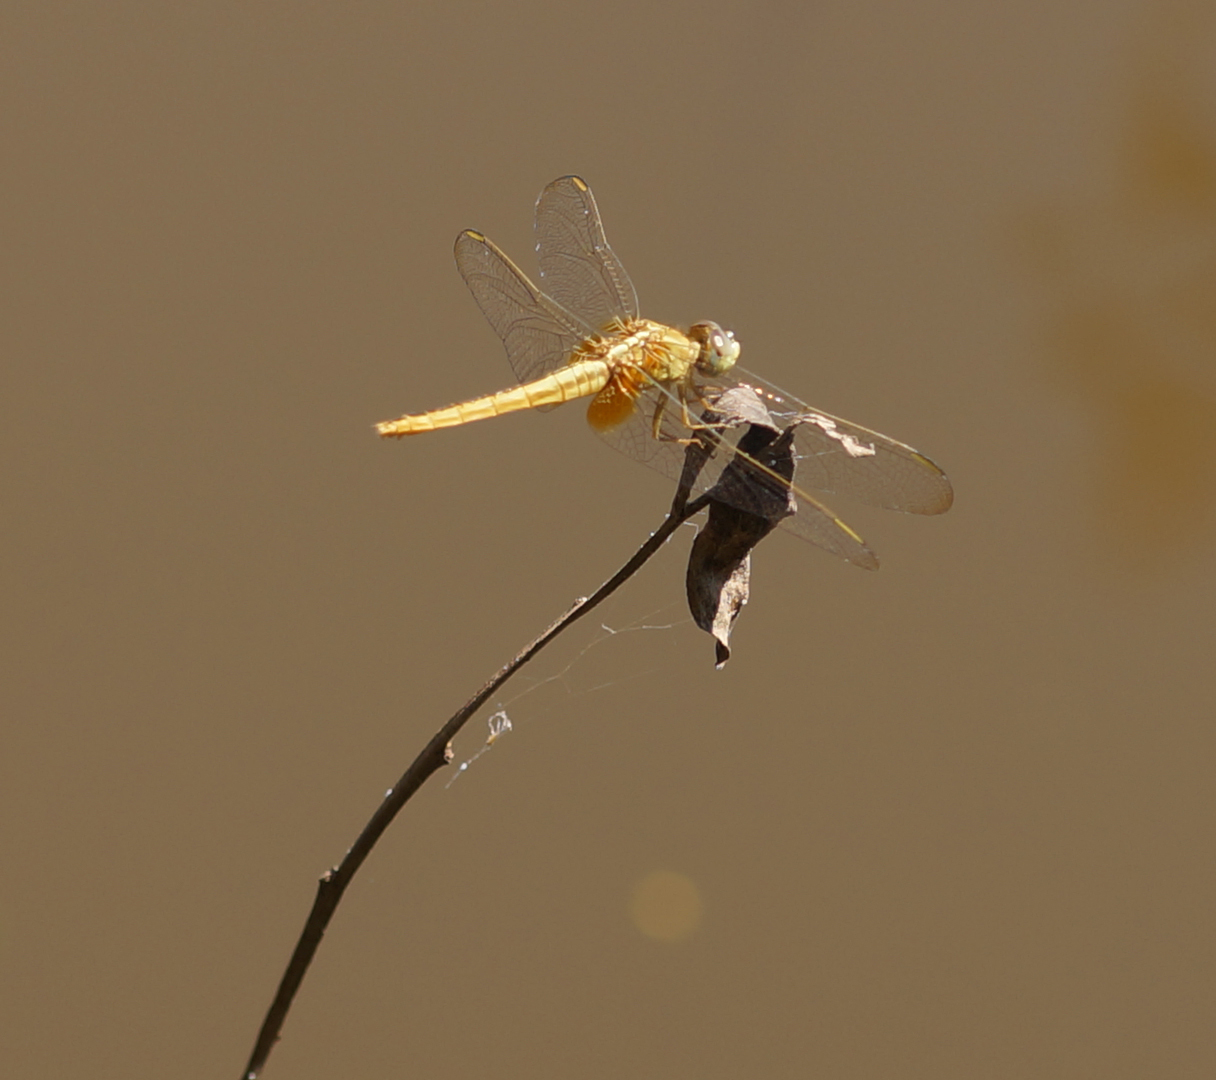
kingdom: Animalia
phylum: Arthropoda
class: Insecta
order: Odonata
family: Libellulidae
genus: Crocothemis
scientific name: Crocothemis servilia
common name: Scarlet skimmer
